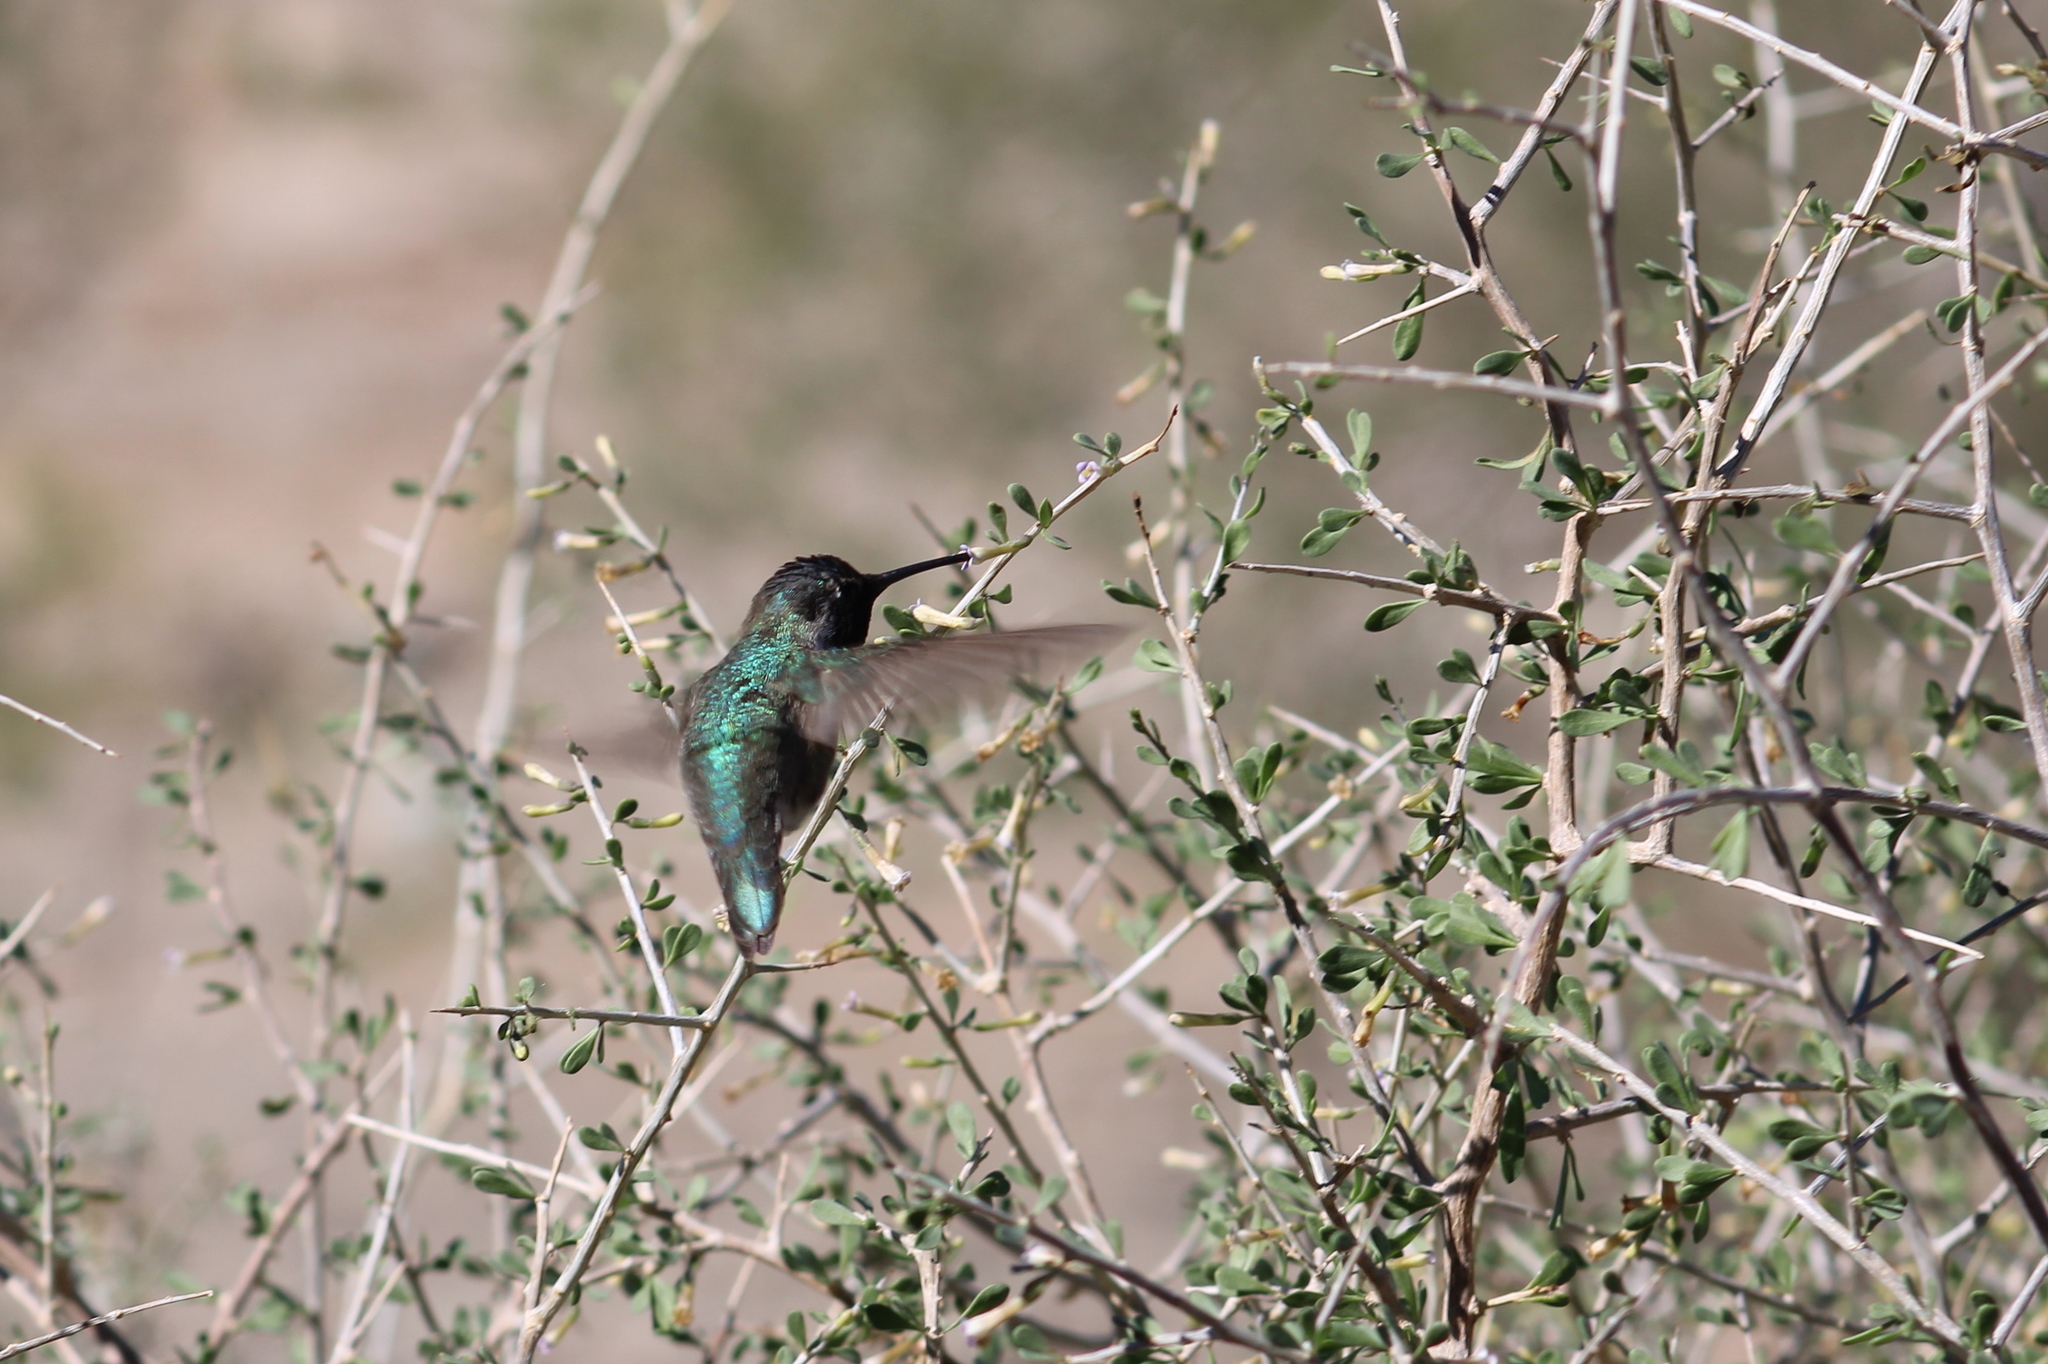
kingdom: Animalia
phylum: Chordata
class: Aves
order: Apodiformes
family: Trochilidae
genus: Calypte
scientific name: Calypte costae
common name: Costa's hummingbird
